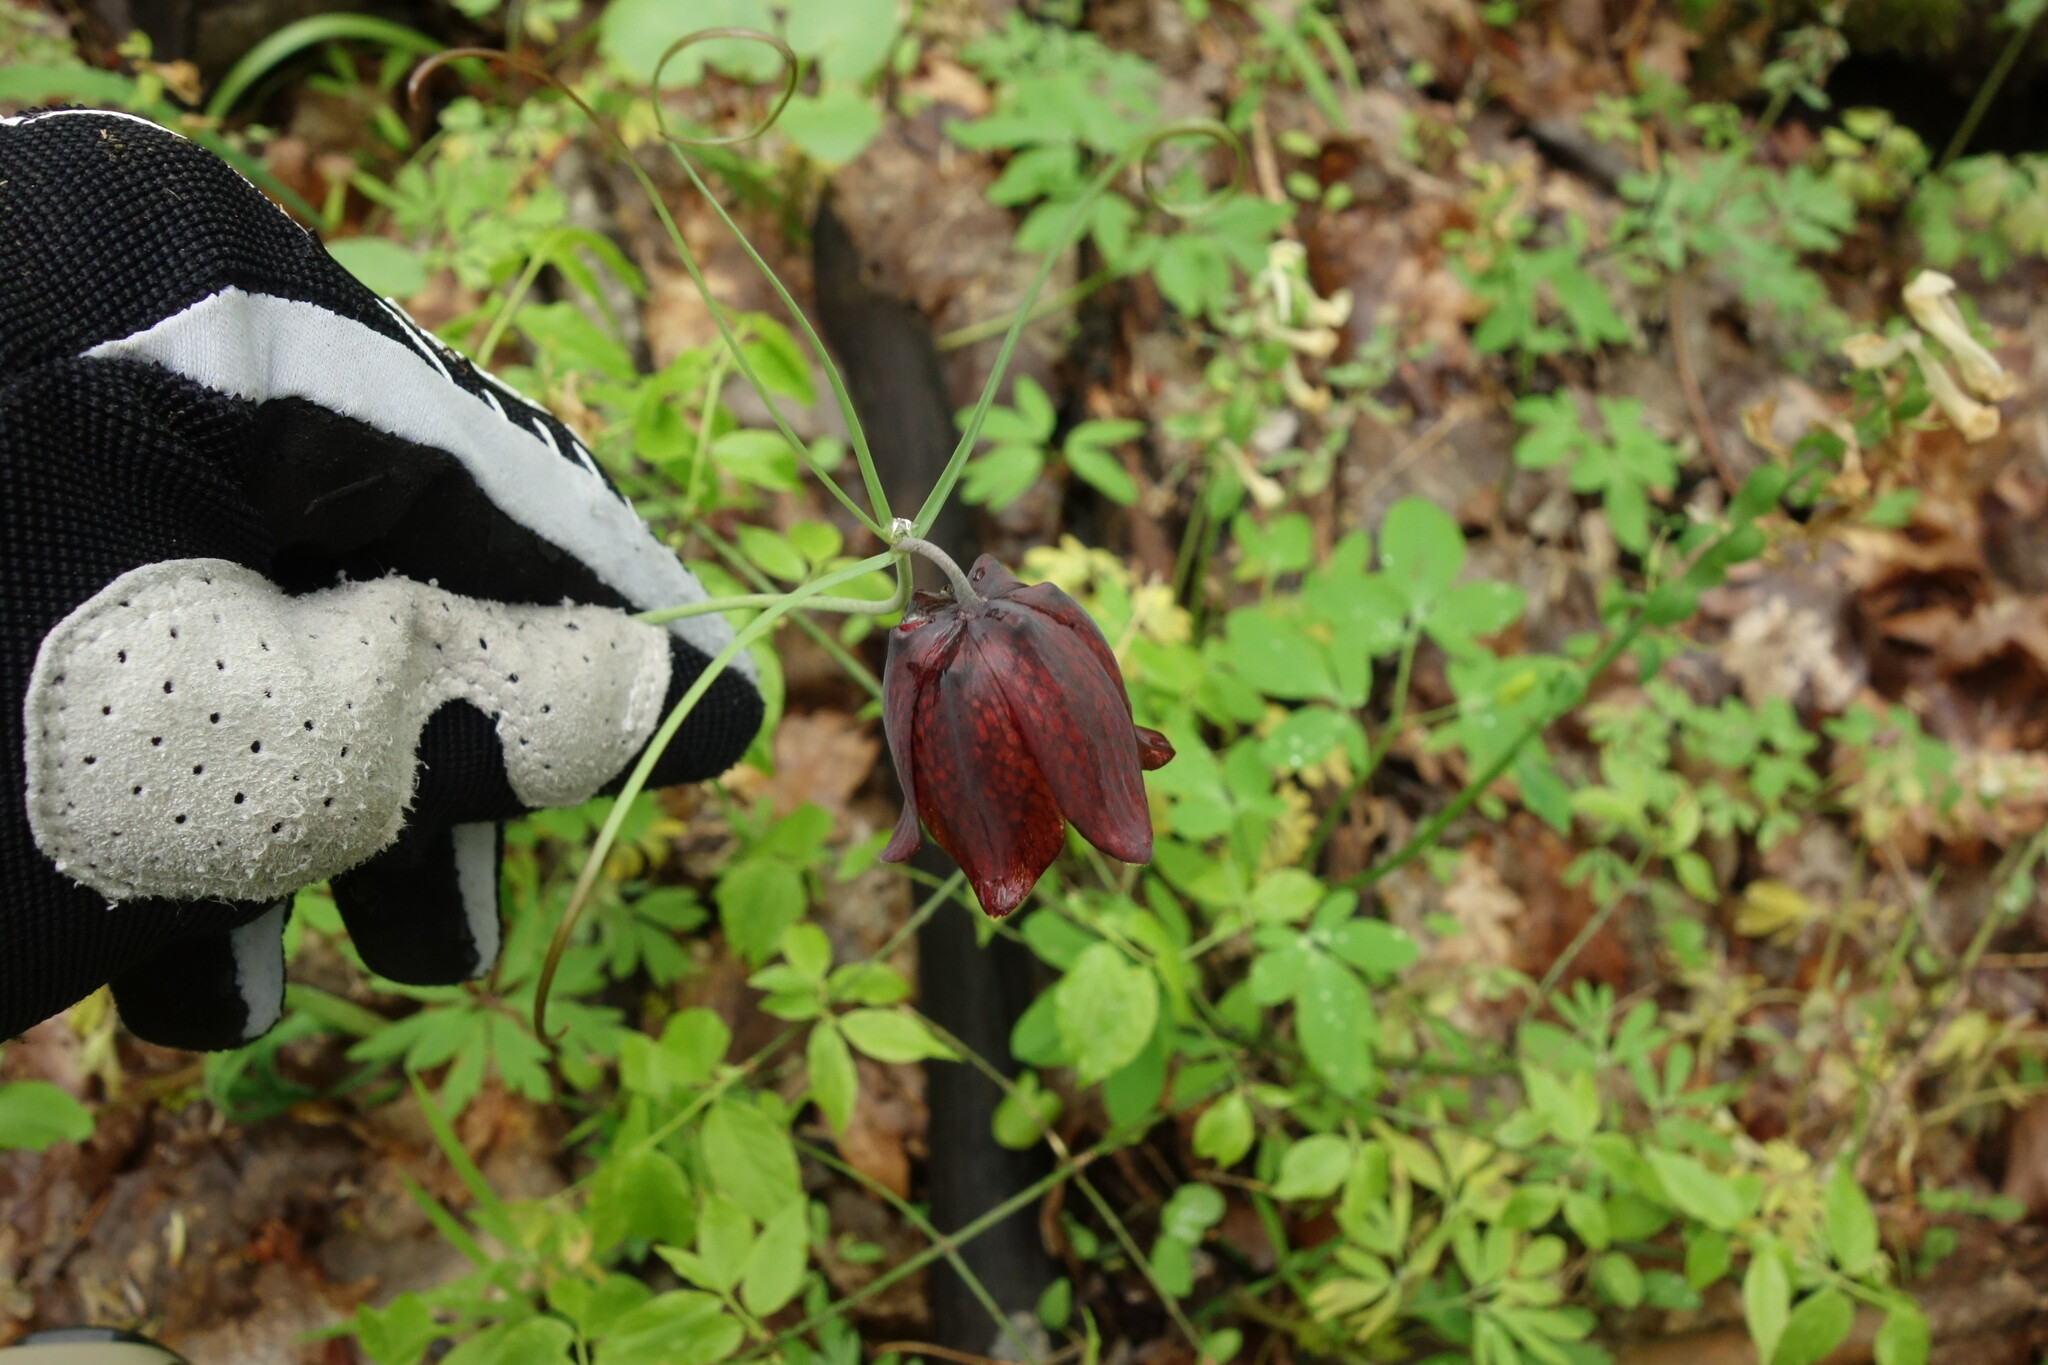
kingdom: Plantae
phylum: Tracheophyta
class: Liliopsida
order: Liliales
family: Liliaceae
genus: Fritillaria
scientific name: Fritillaria ruthenica
